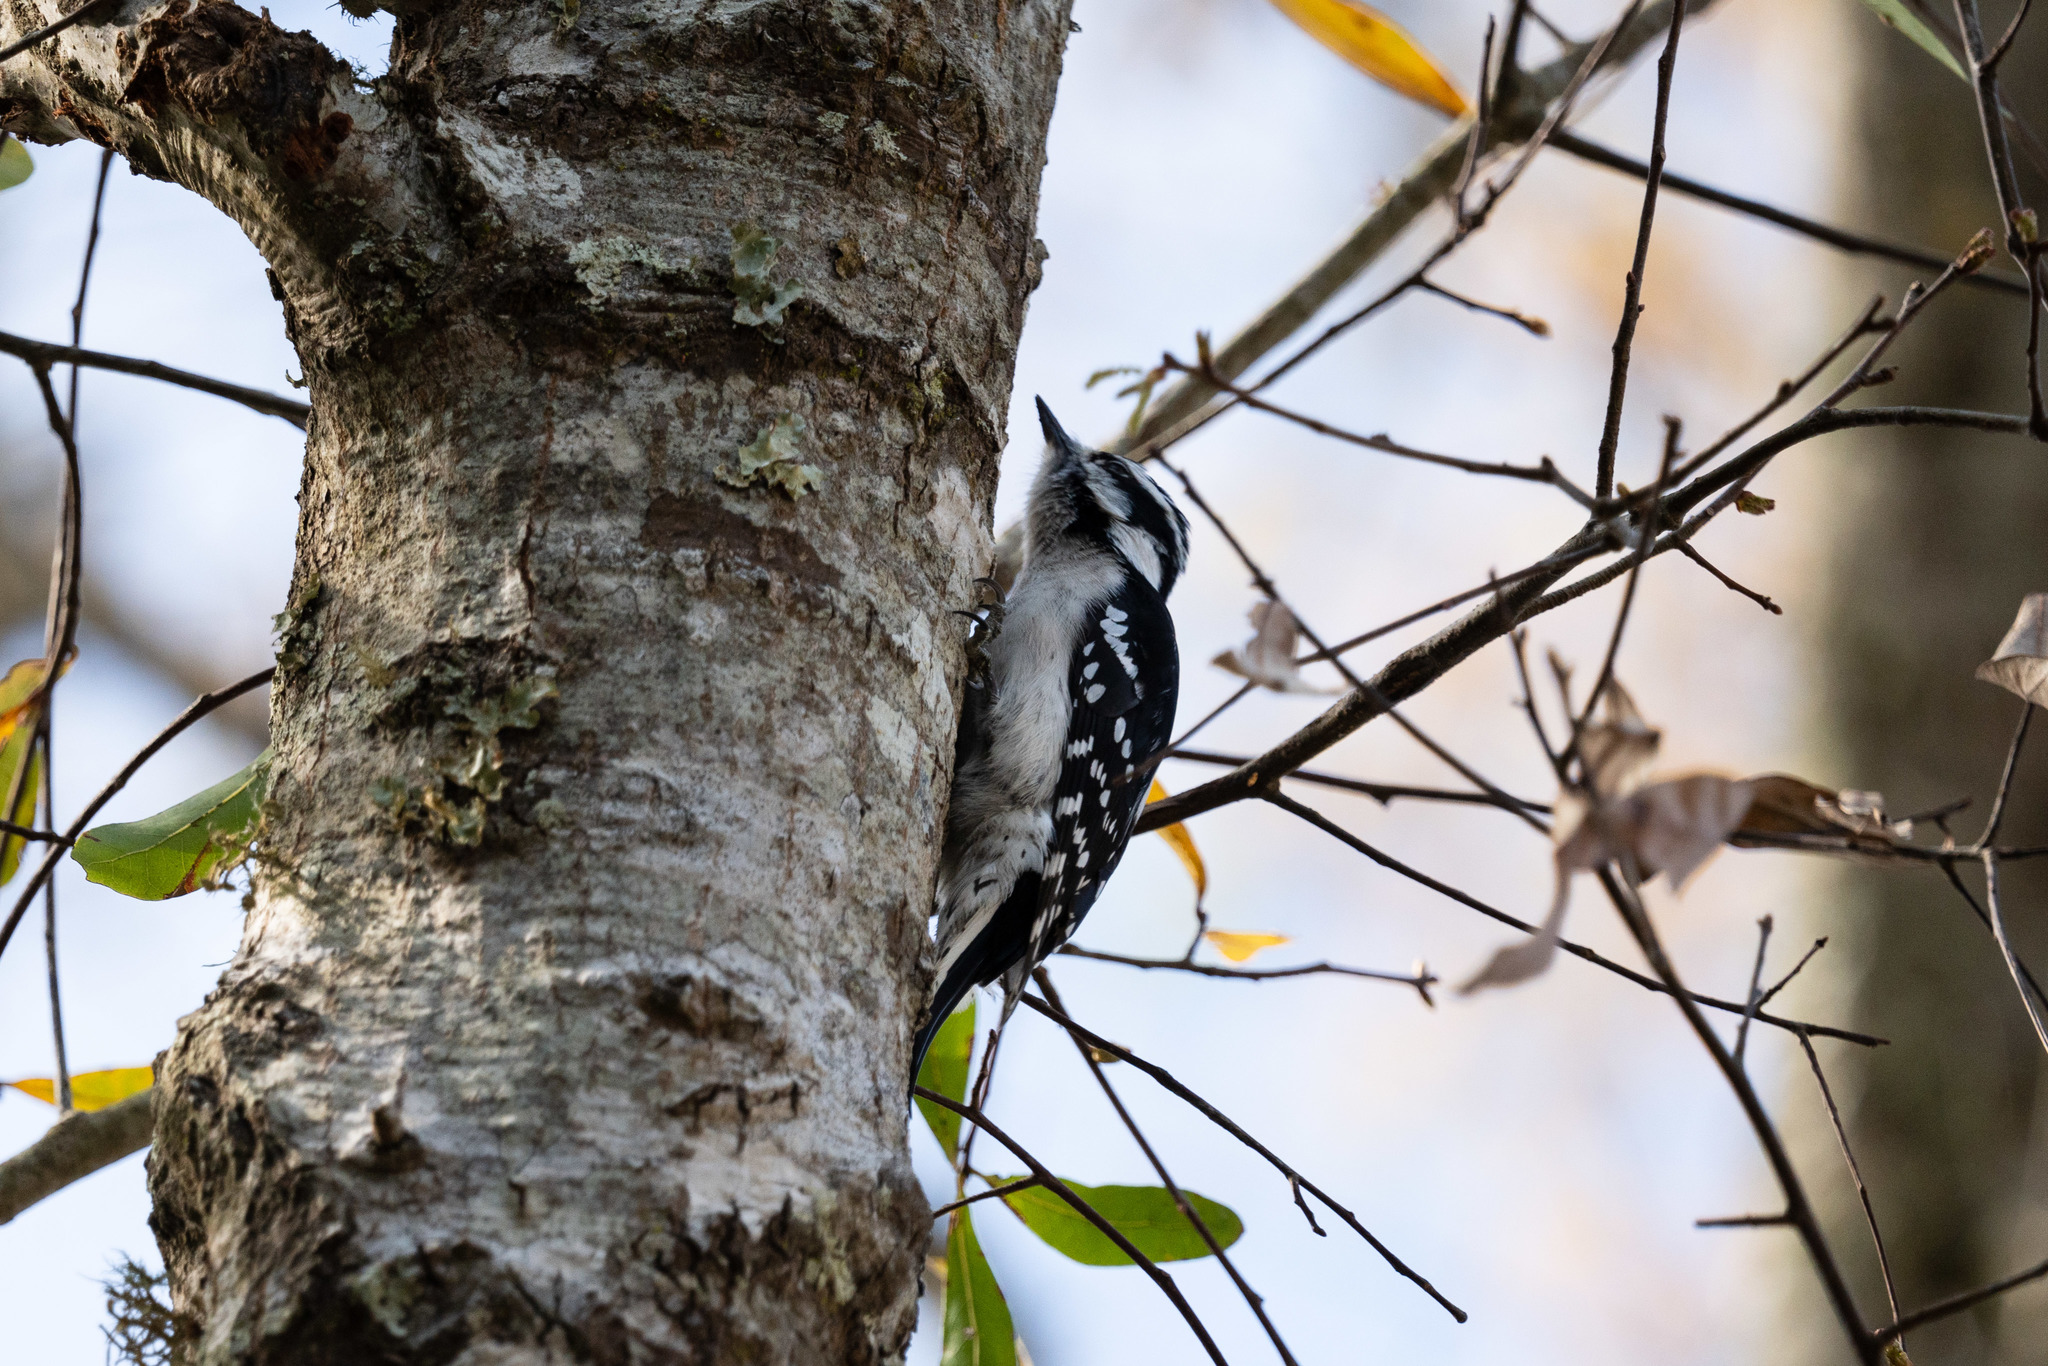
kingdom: Animalia
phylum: Chordata
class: Aves
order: Piciformes
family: Picidae
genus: Dryobates
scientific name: Dryobates pubescens
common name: Downy woodpecker
